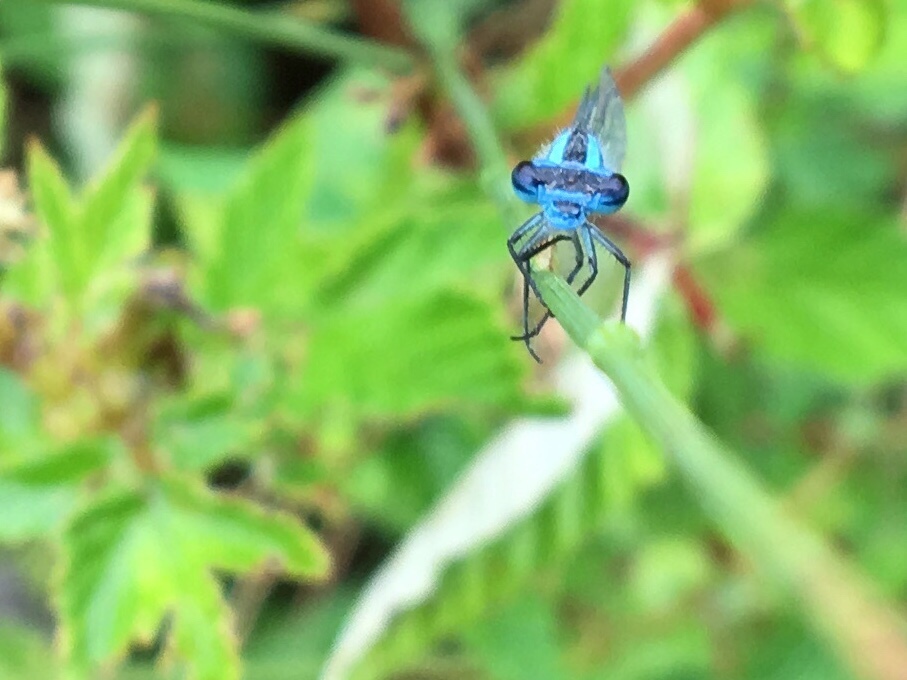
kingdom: Animalia
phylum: Arthropoda
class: Insecta
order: Odonata
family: Coenagrionidae
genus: Enallagma
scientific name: Enallagma cyathigerum
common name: Common blue damselfly
